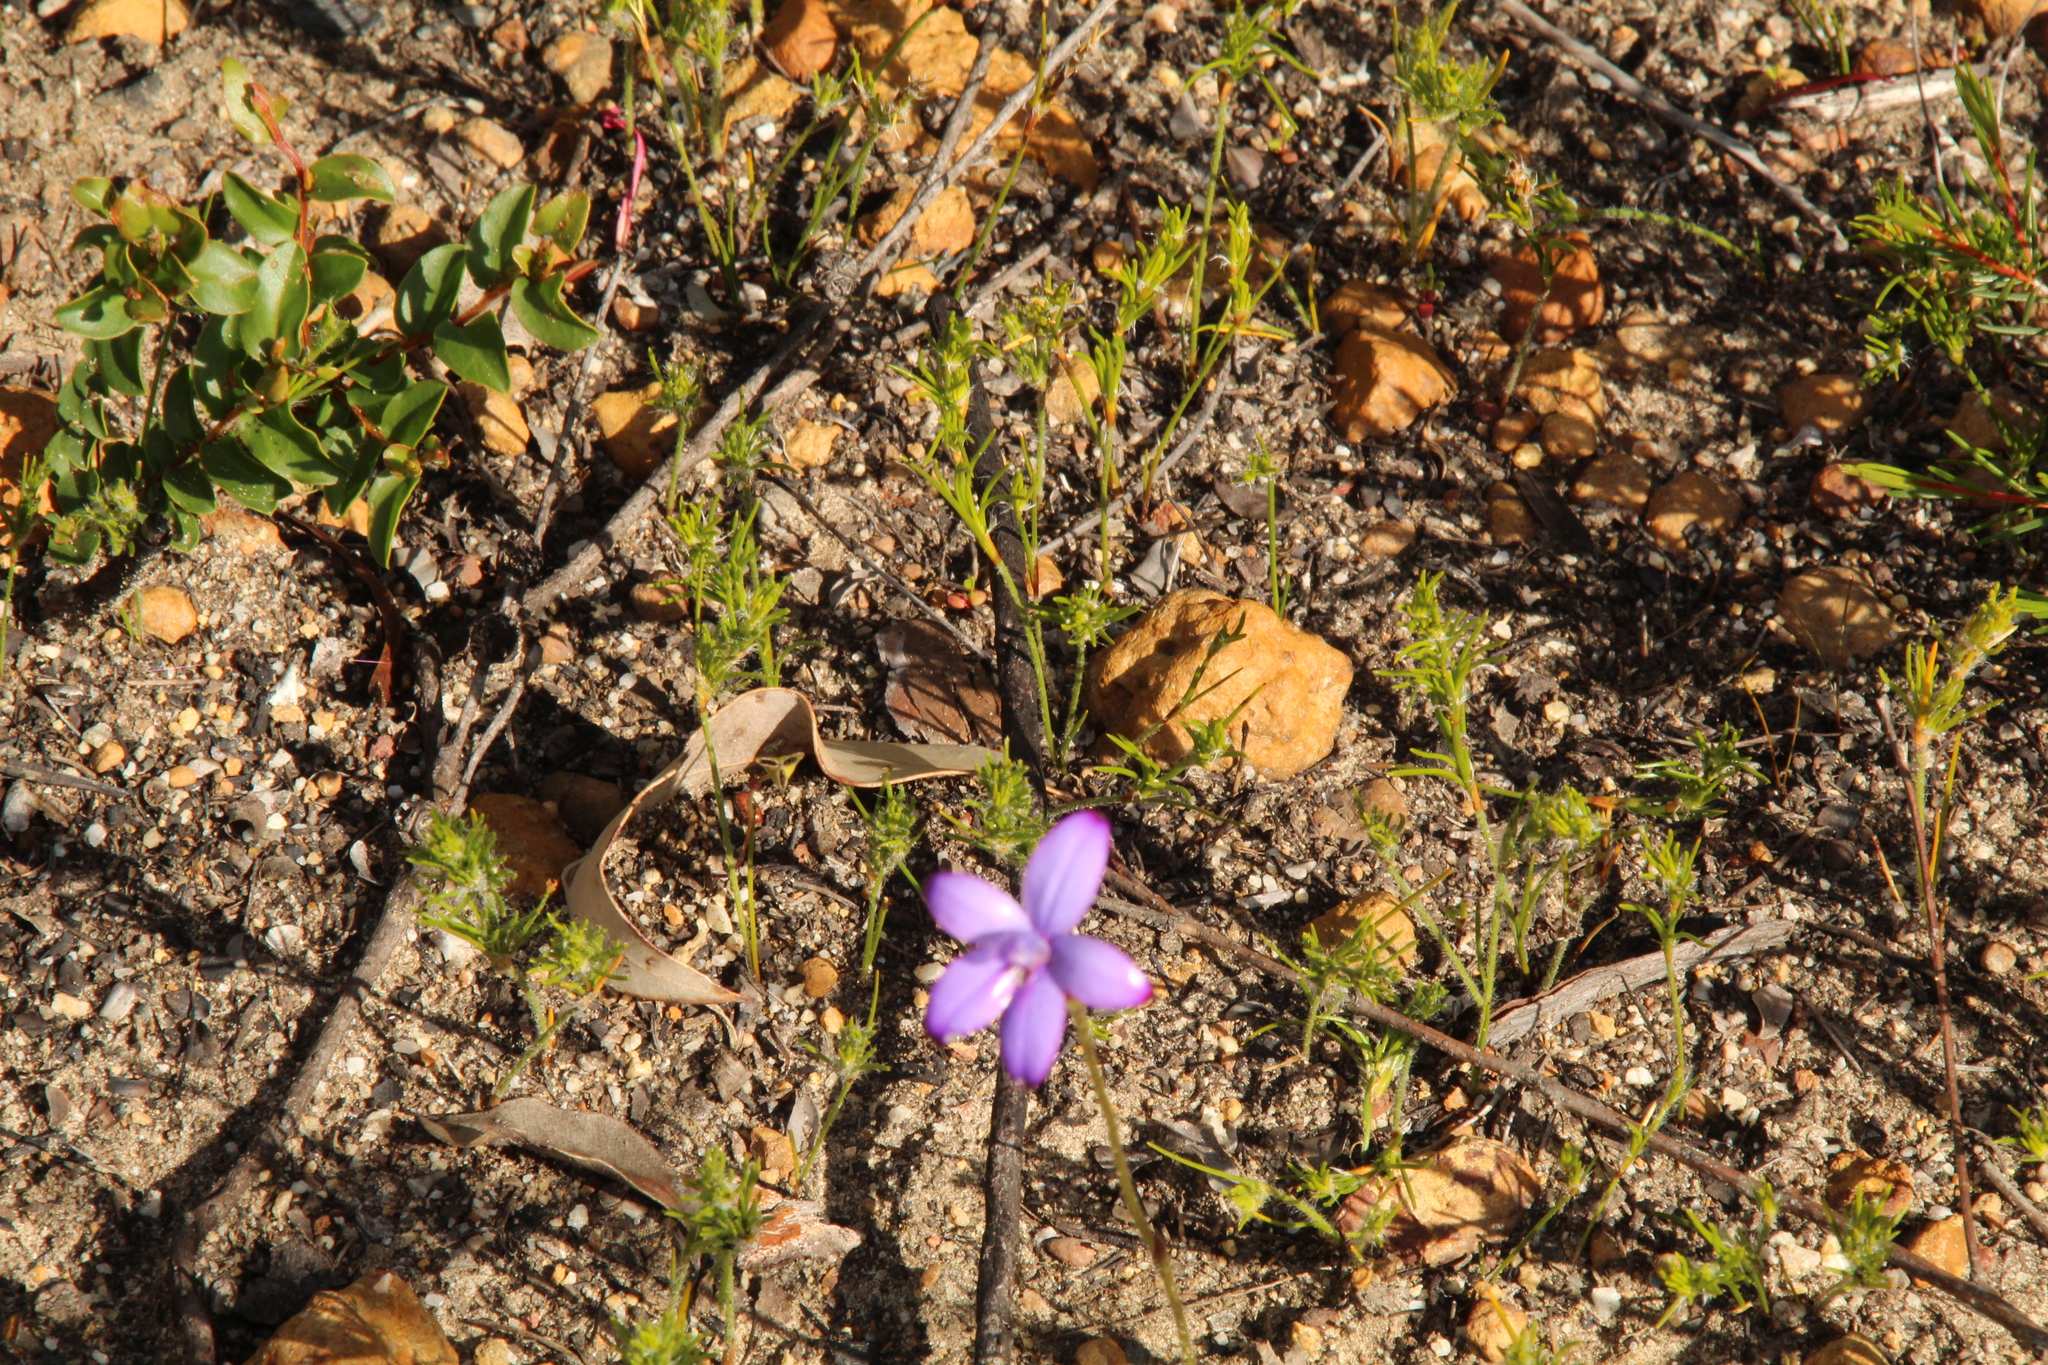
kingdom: Plantae
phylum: Tracheophyta
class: Liliopsida
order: Asparagales
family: Orchidaceae
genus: Caladenia
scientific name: Caladenia brunonis
